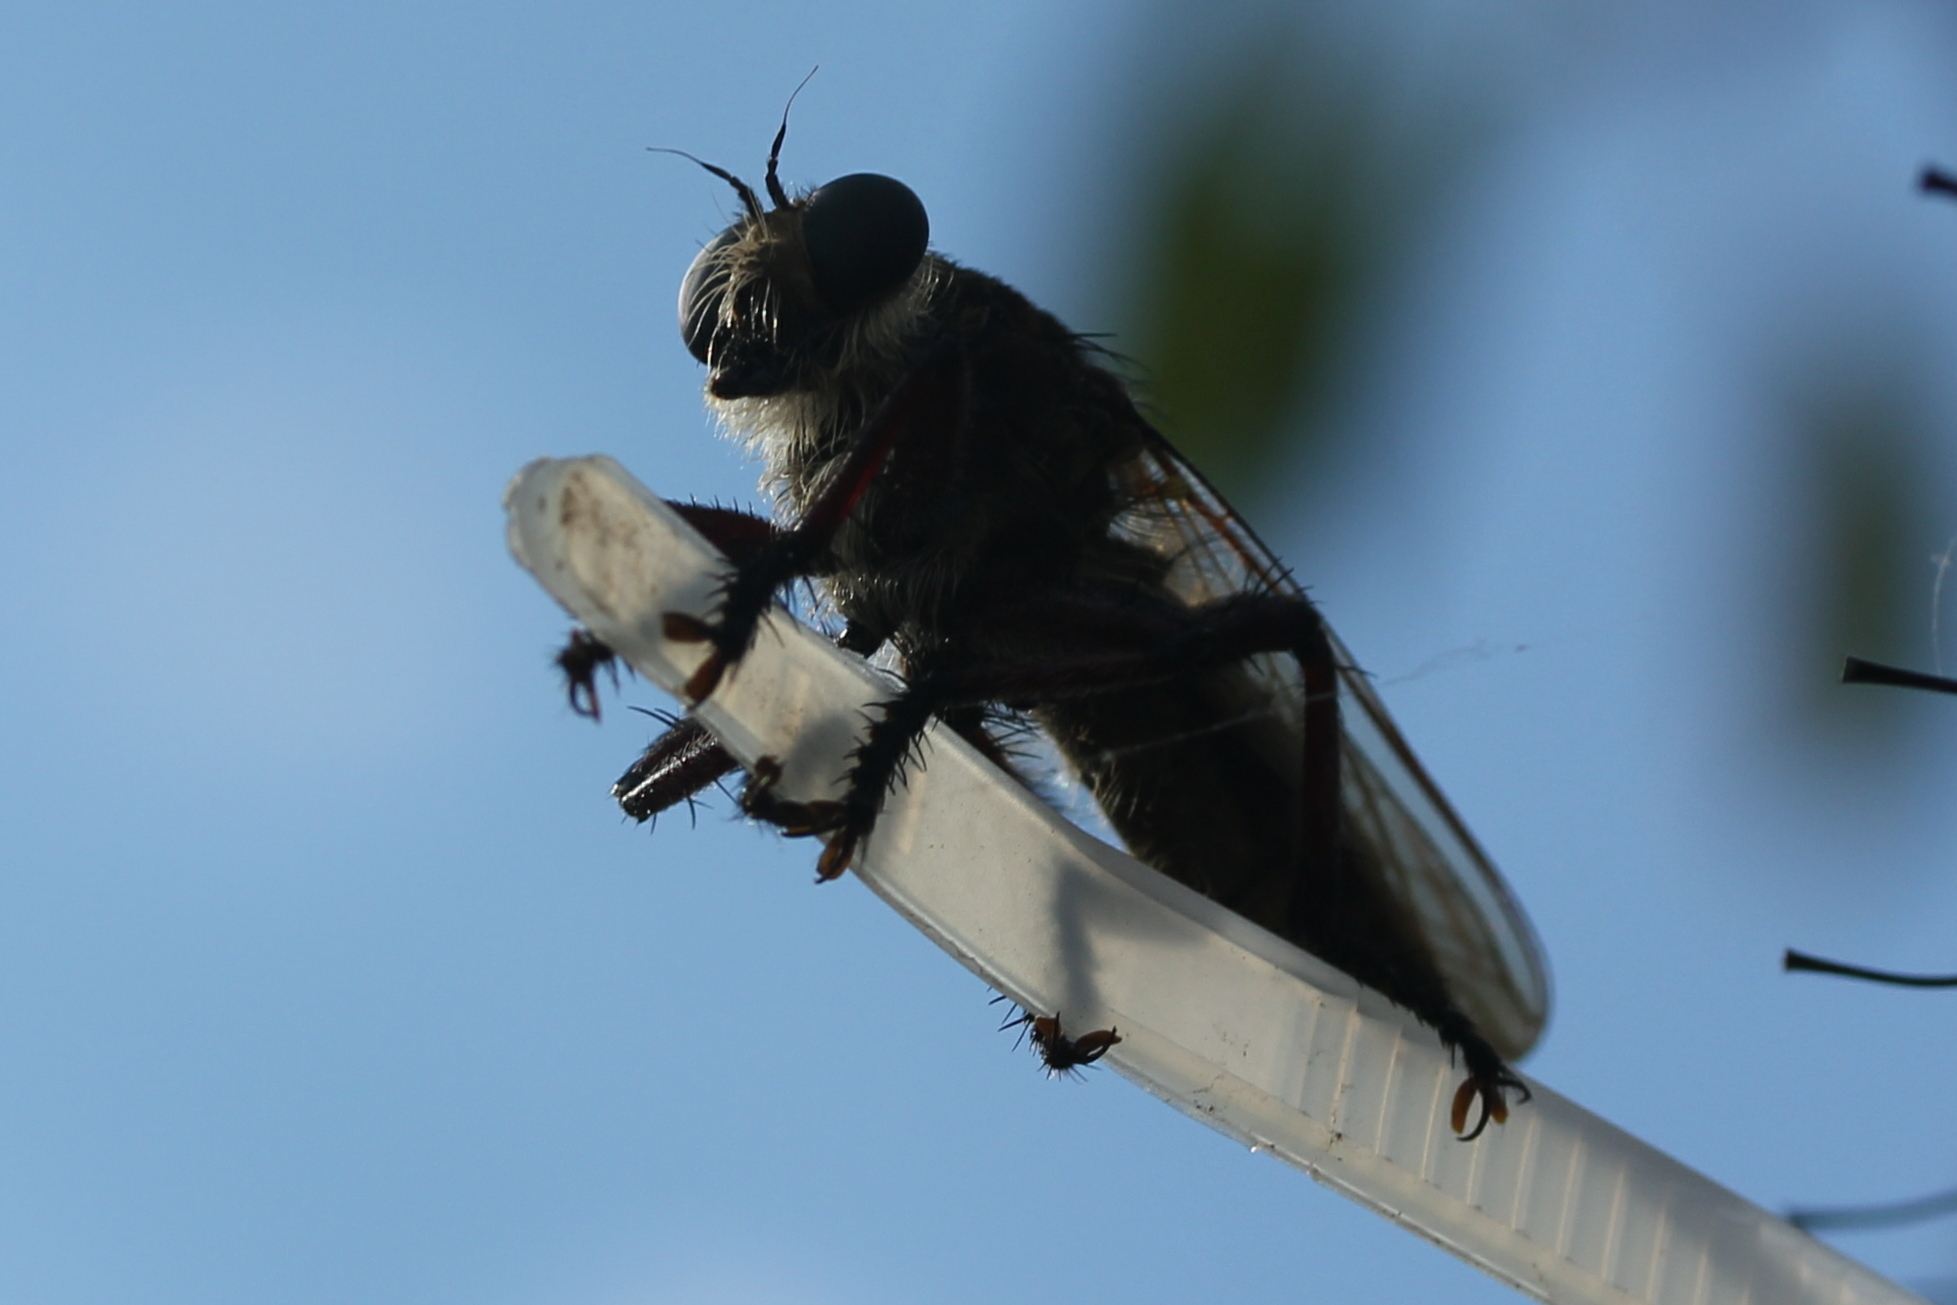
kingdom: Animalia
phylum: Arthropoda
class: Insecta
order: Diptera
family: Asilidae
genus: Promachus
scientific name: Promachus hinei
